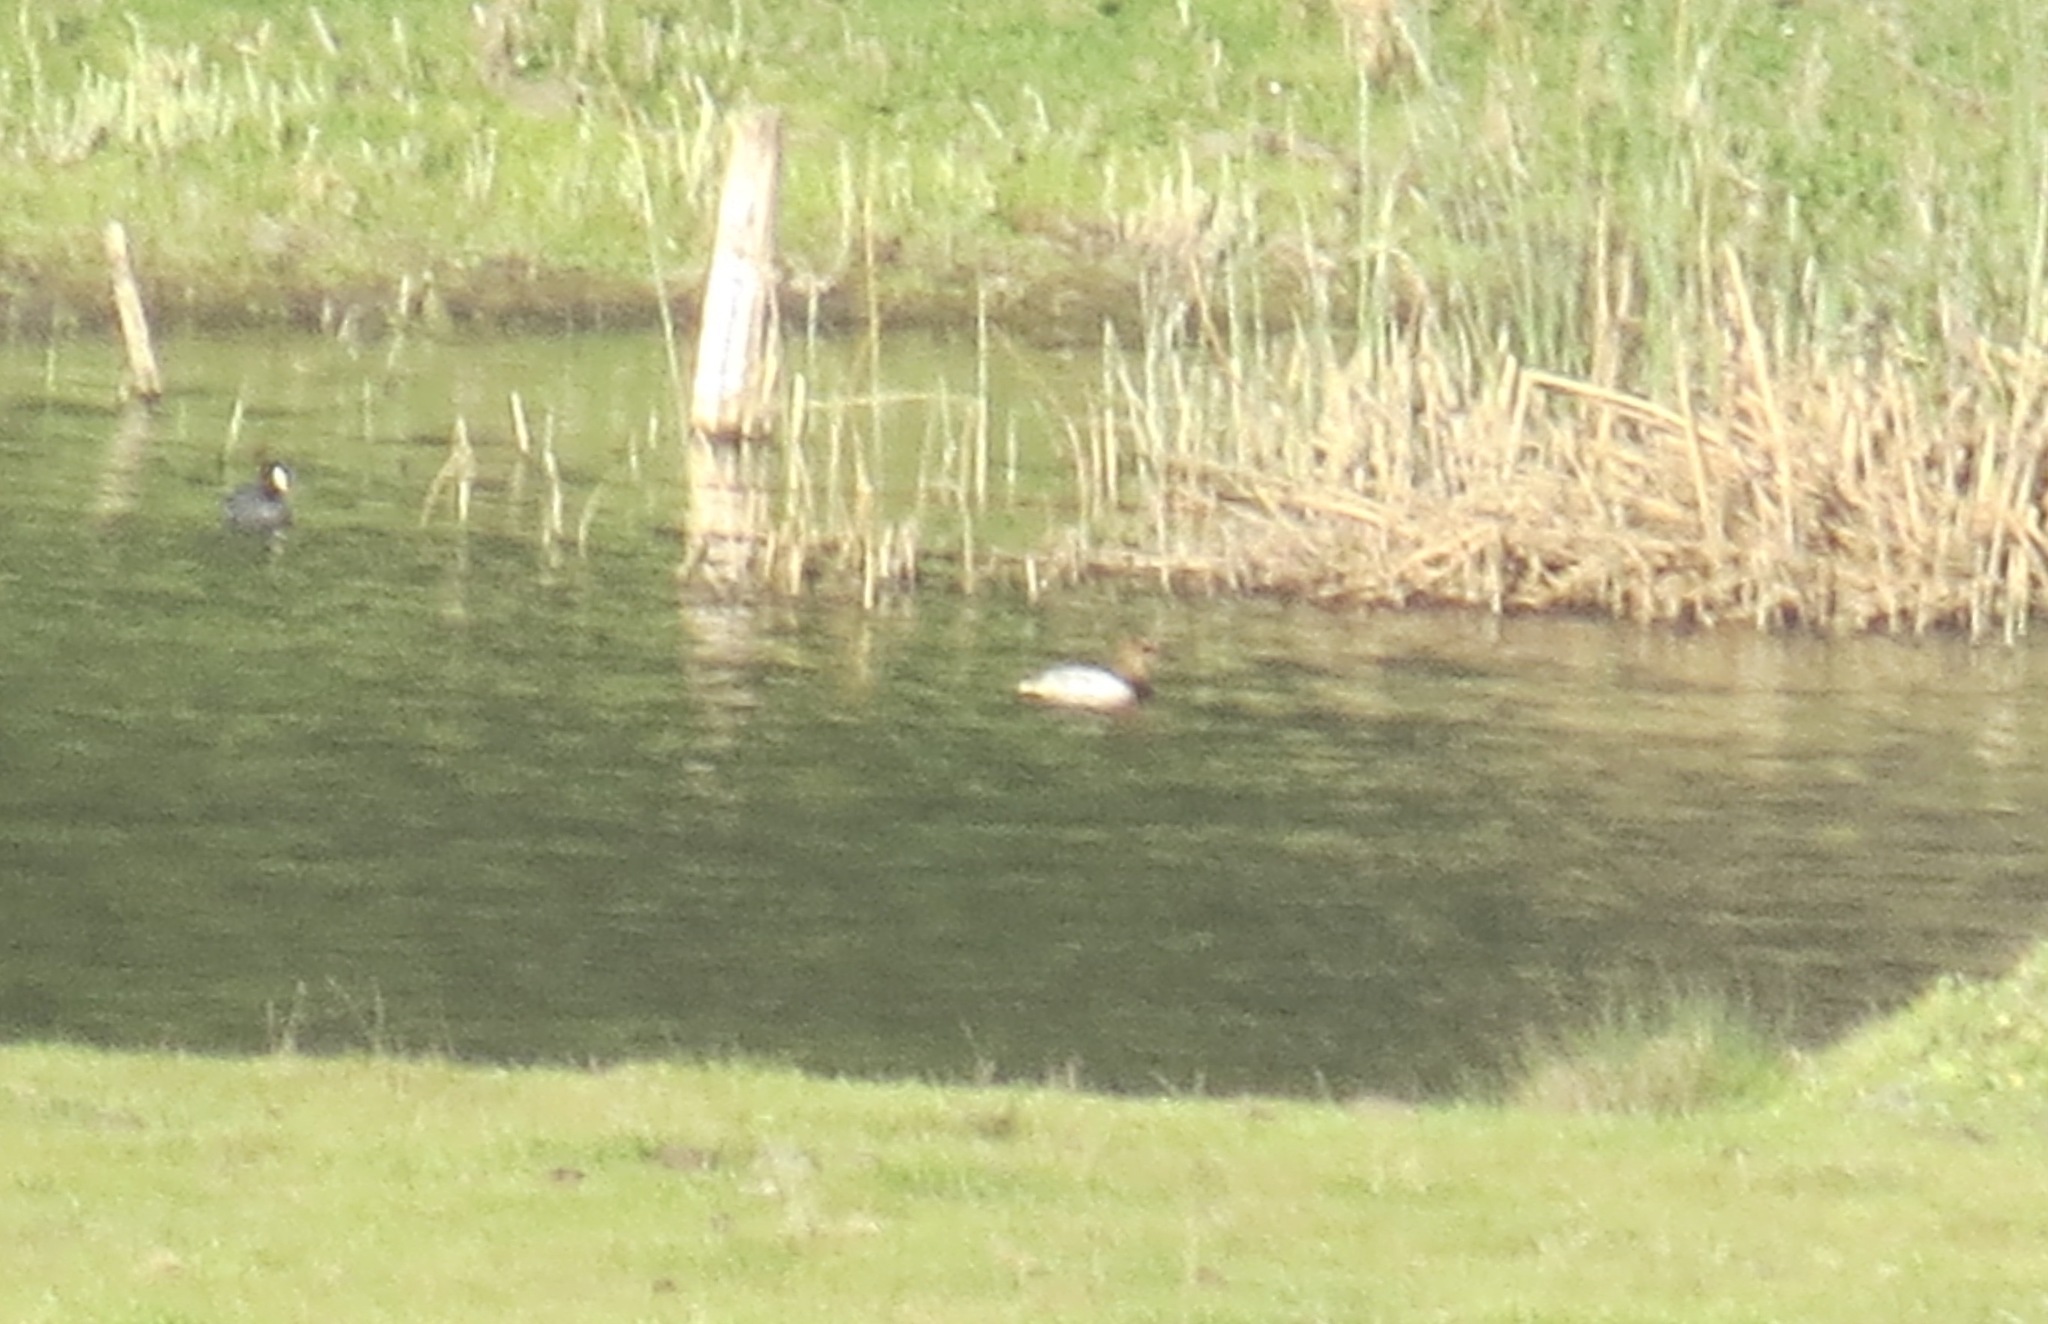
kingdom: Animalia
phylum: Chordata
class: Aves
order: Anseriformes
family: Anatidae
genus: Aythya
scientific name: Aythya valisineria
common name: Canvasback
